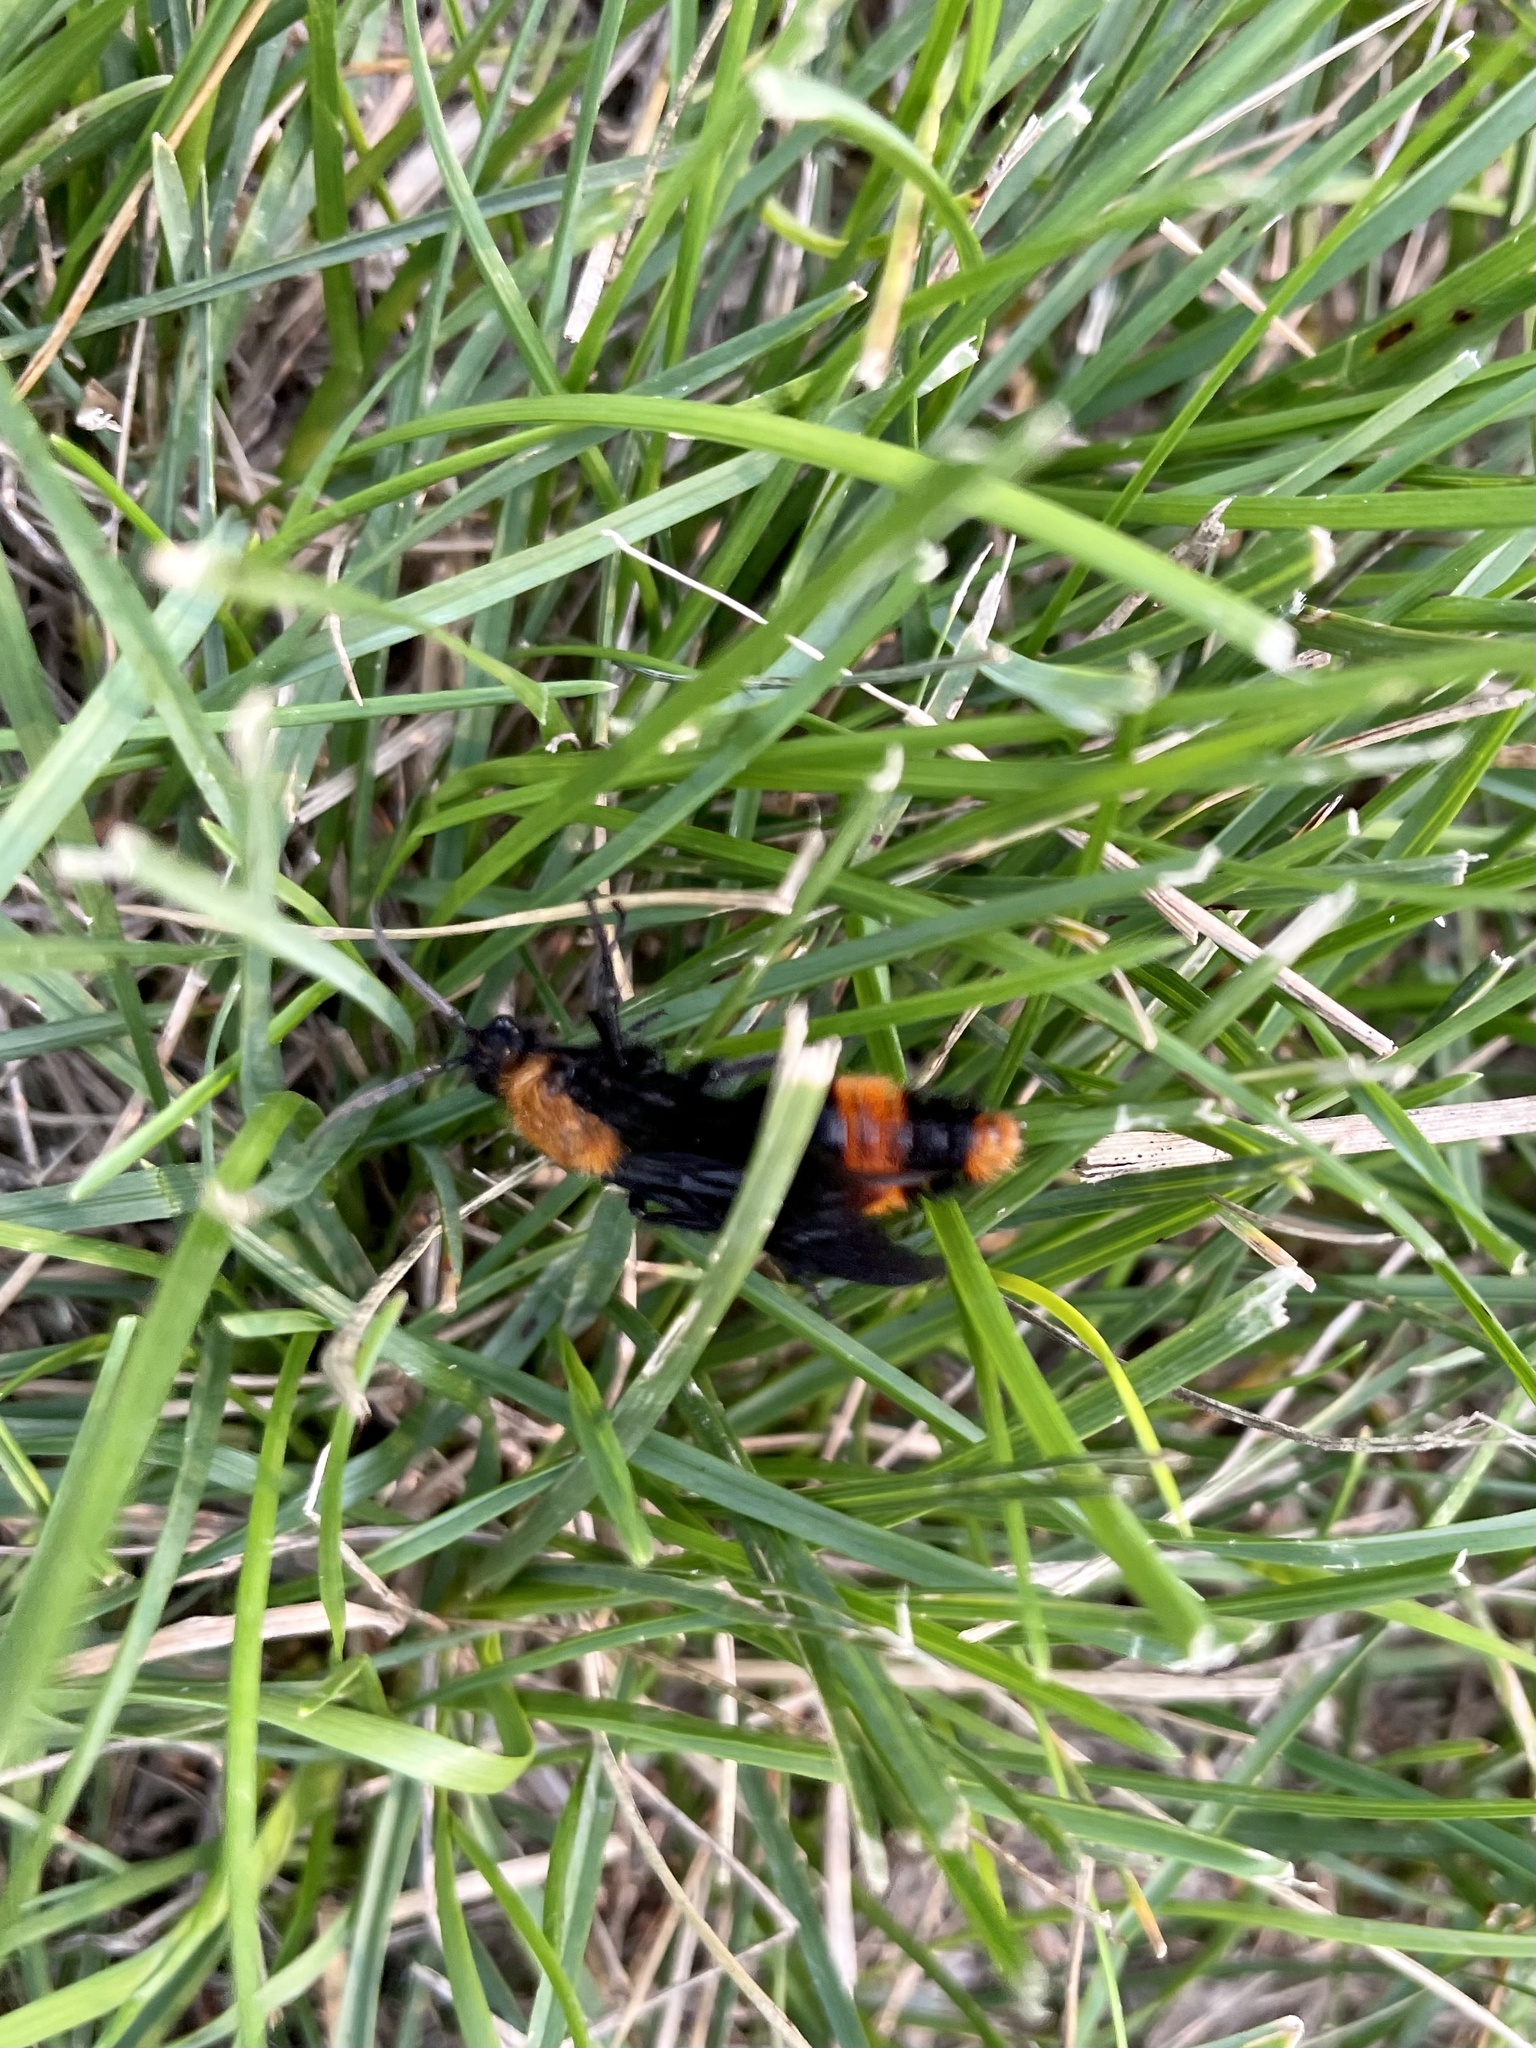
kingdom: Animalia
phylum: Arthropoda
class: Insecta
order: Hymenoptera
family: Mutillidae
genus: Dasymutilla
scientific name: Dasymutilla occidentalis
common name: Common eastern velvet ant
